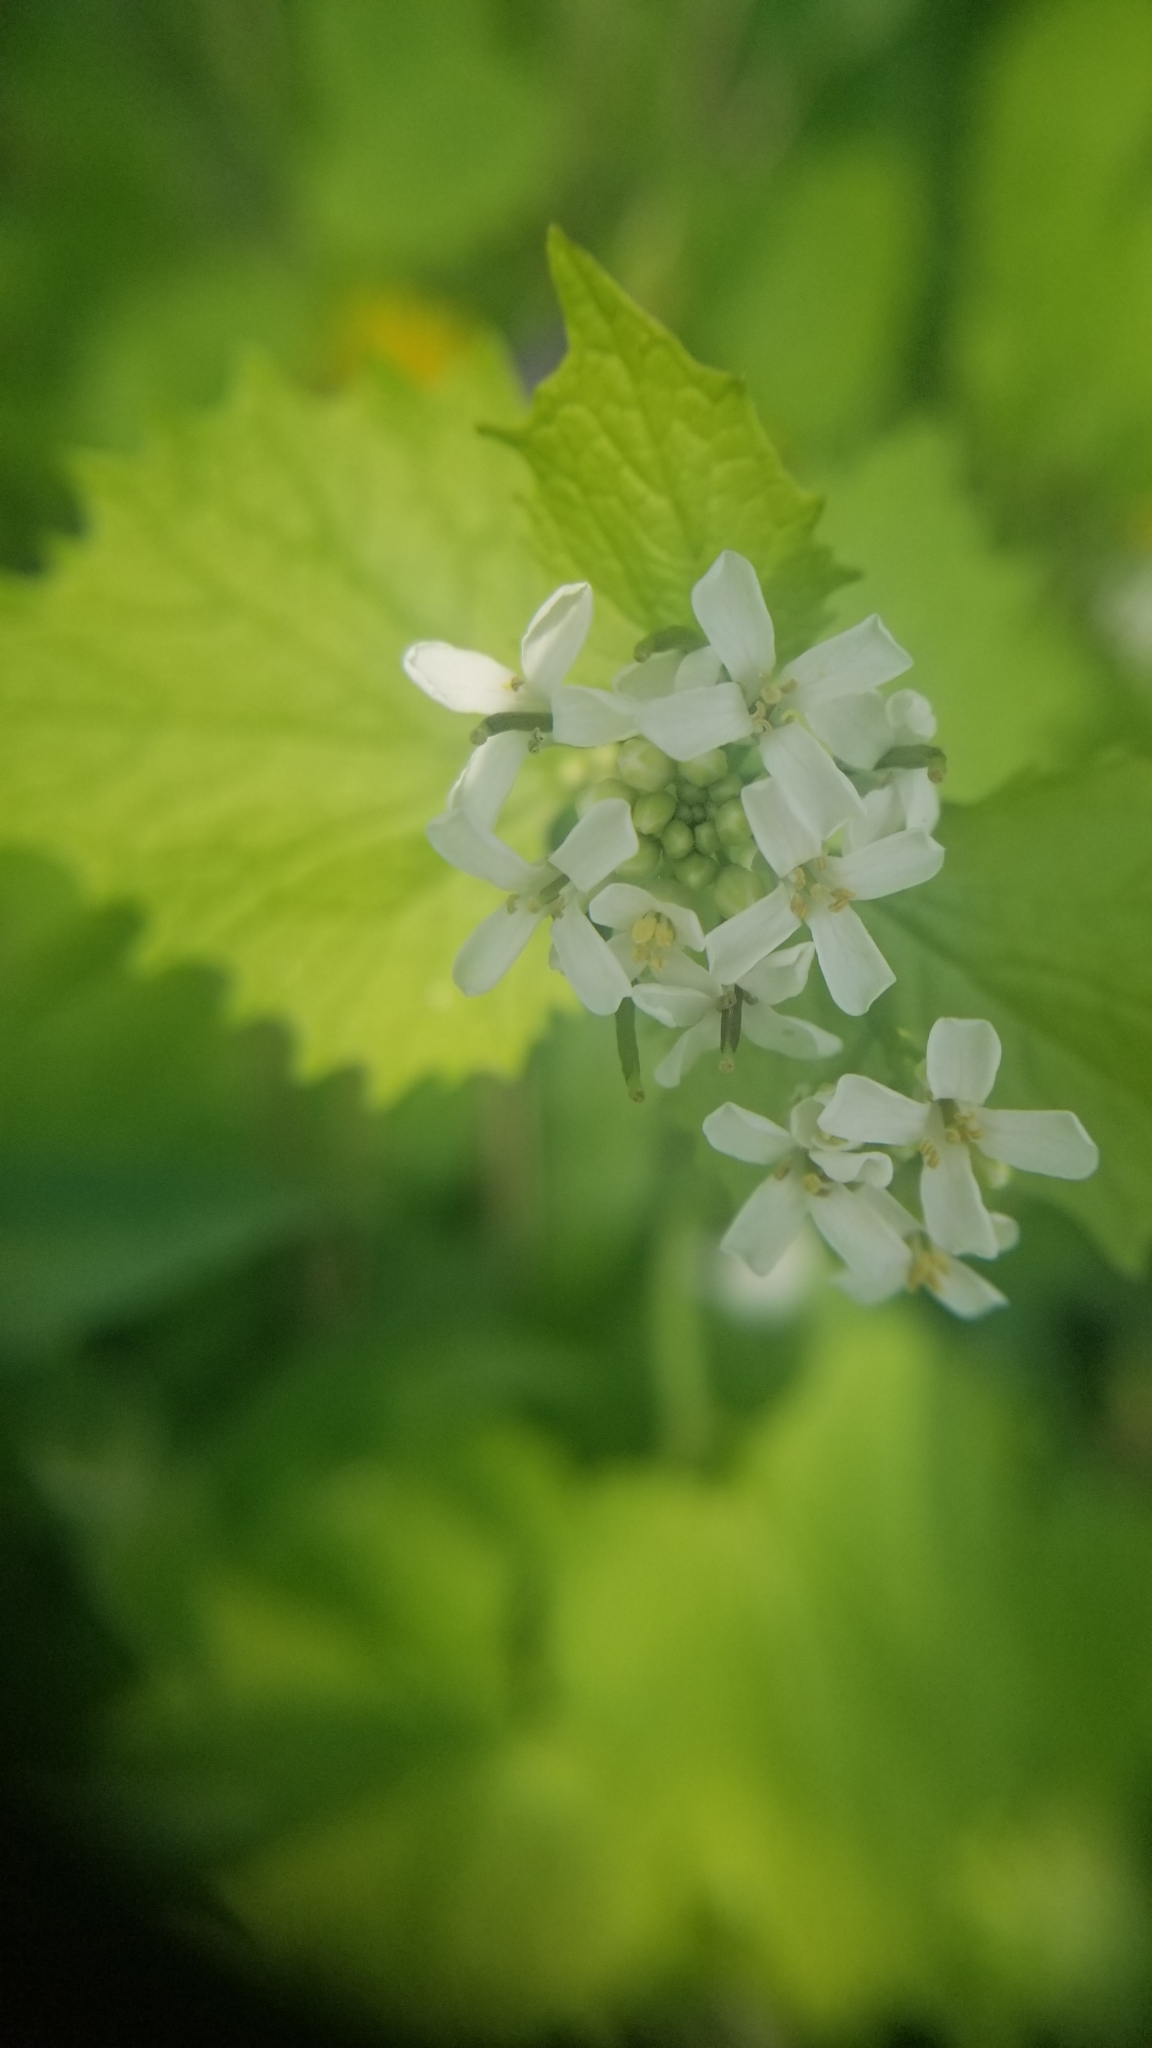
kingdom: Plantae
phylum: Tracheophyta
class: Magnoliopsida
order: Brassicales
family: Brassicaceae
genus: Alliaria
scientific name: Alliaria petiolata
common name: Garlic mustard
